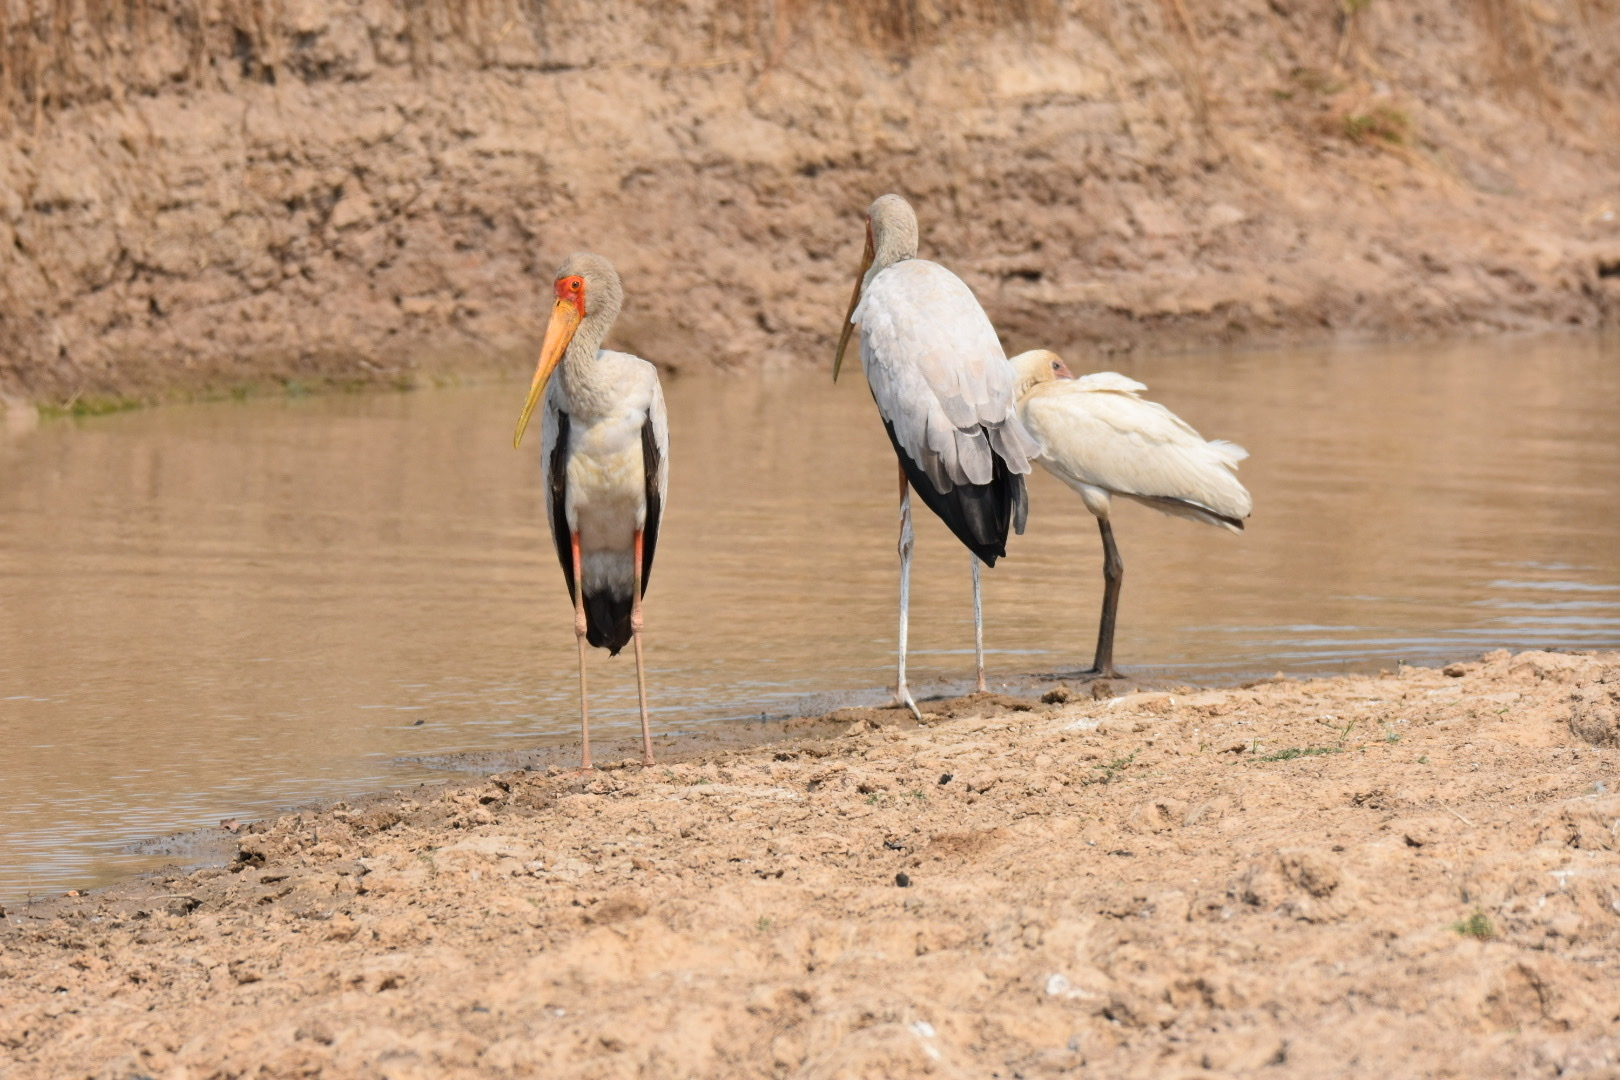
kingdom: Animalia
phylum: Chordata
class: Aves
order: Ciconiiformes
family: Ciconiidae
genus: Mycteria
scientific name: Mycteria ibis
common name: Yellow-billed stork
